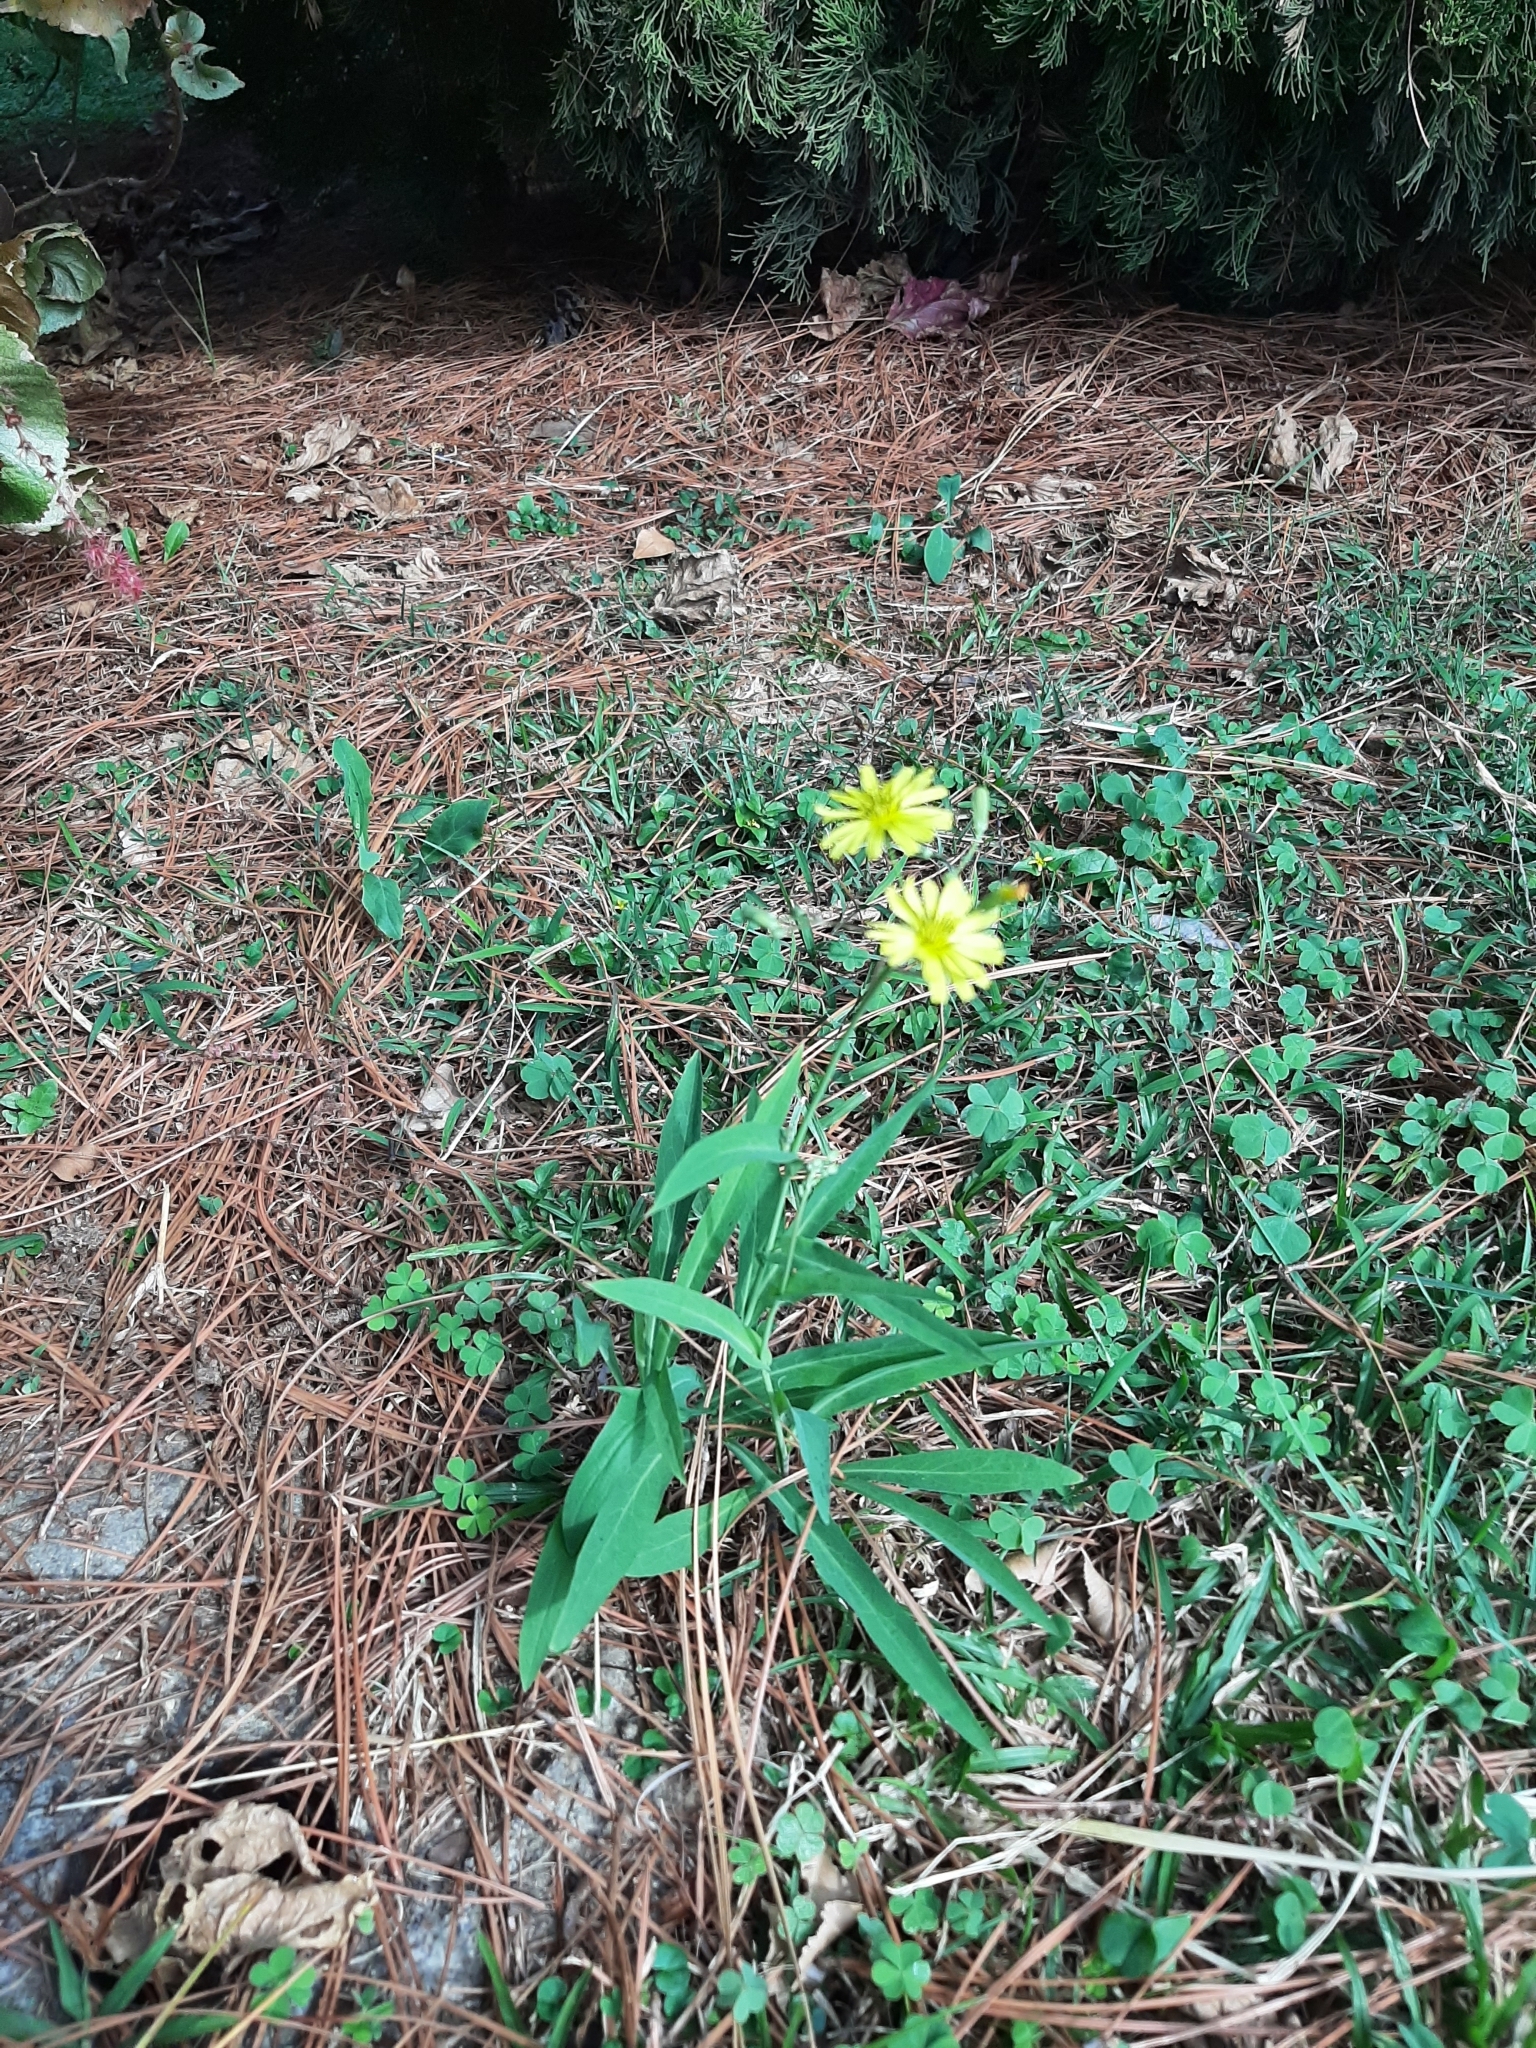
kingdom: Plantae
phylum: Tracheophyta
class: Magnoliopsida
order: Asterales
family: Asteraceae
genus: Ixeris
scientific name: Ixeris chinensis
